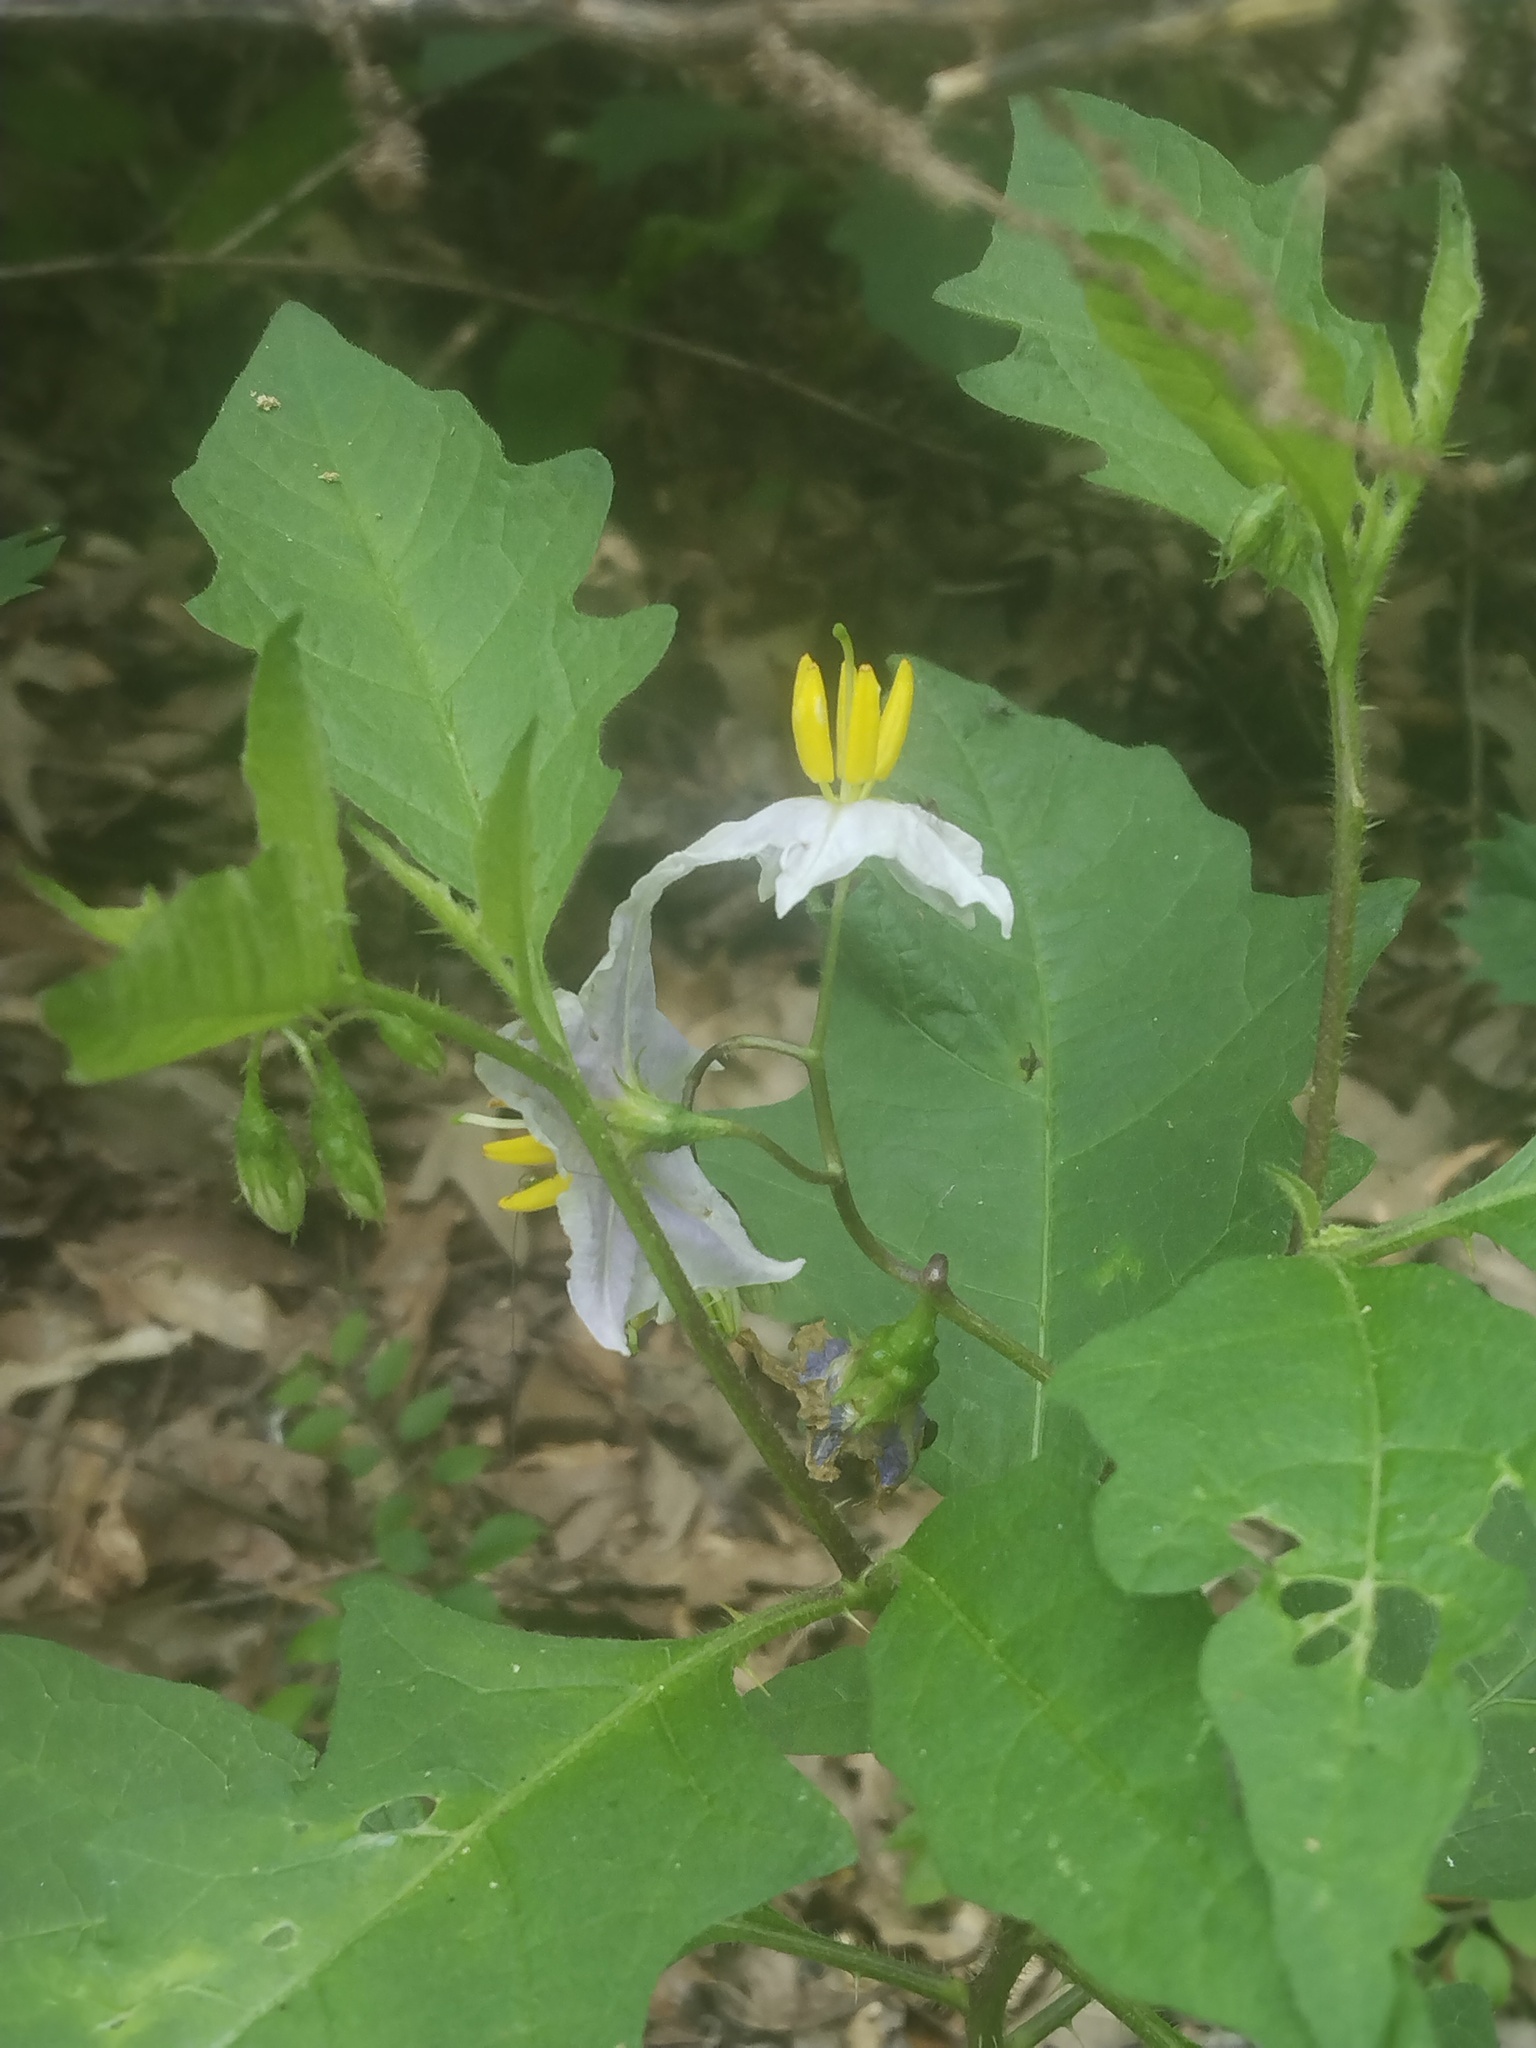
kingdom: Plantae
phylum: Tracheophyta
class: Magnoliopsida
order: Solanales
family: Solanaceae
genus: Solanum
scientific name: Solanum carolinense
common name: Horse-nettle
